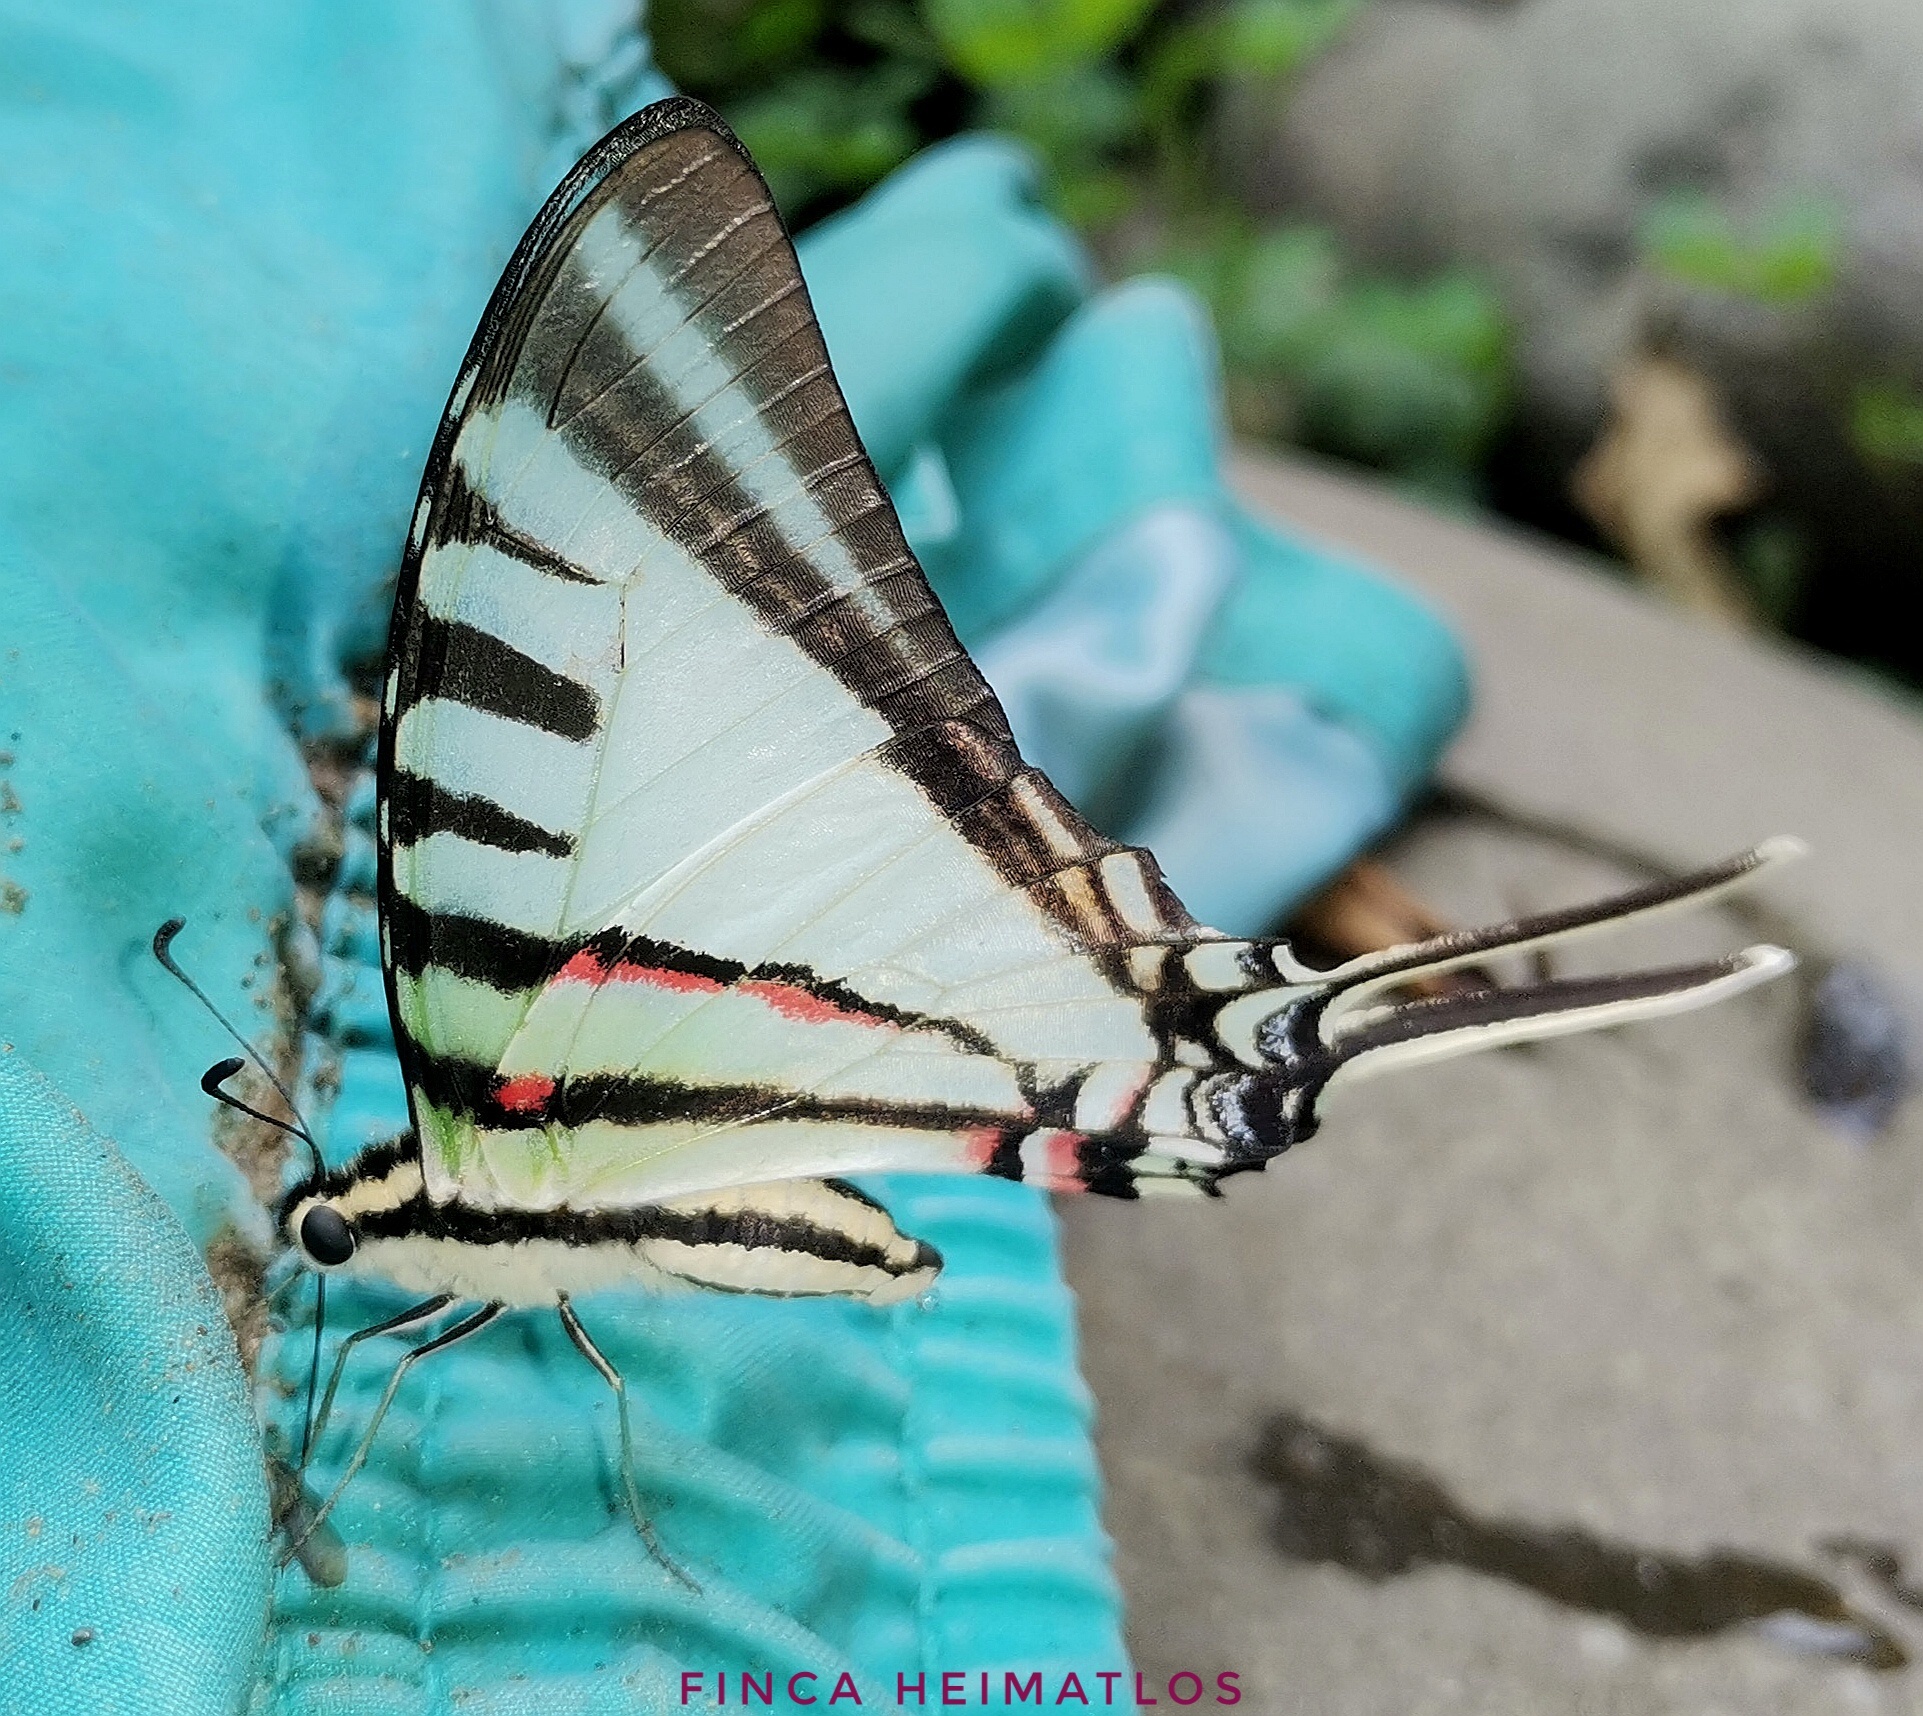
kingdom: Animalia
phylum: Arthropoda
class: Insecta
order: Lepidoptera
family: Papilionidae
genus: Eurytides
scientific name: Eurytides
